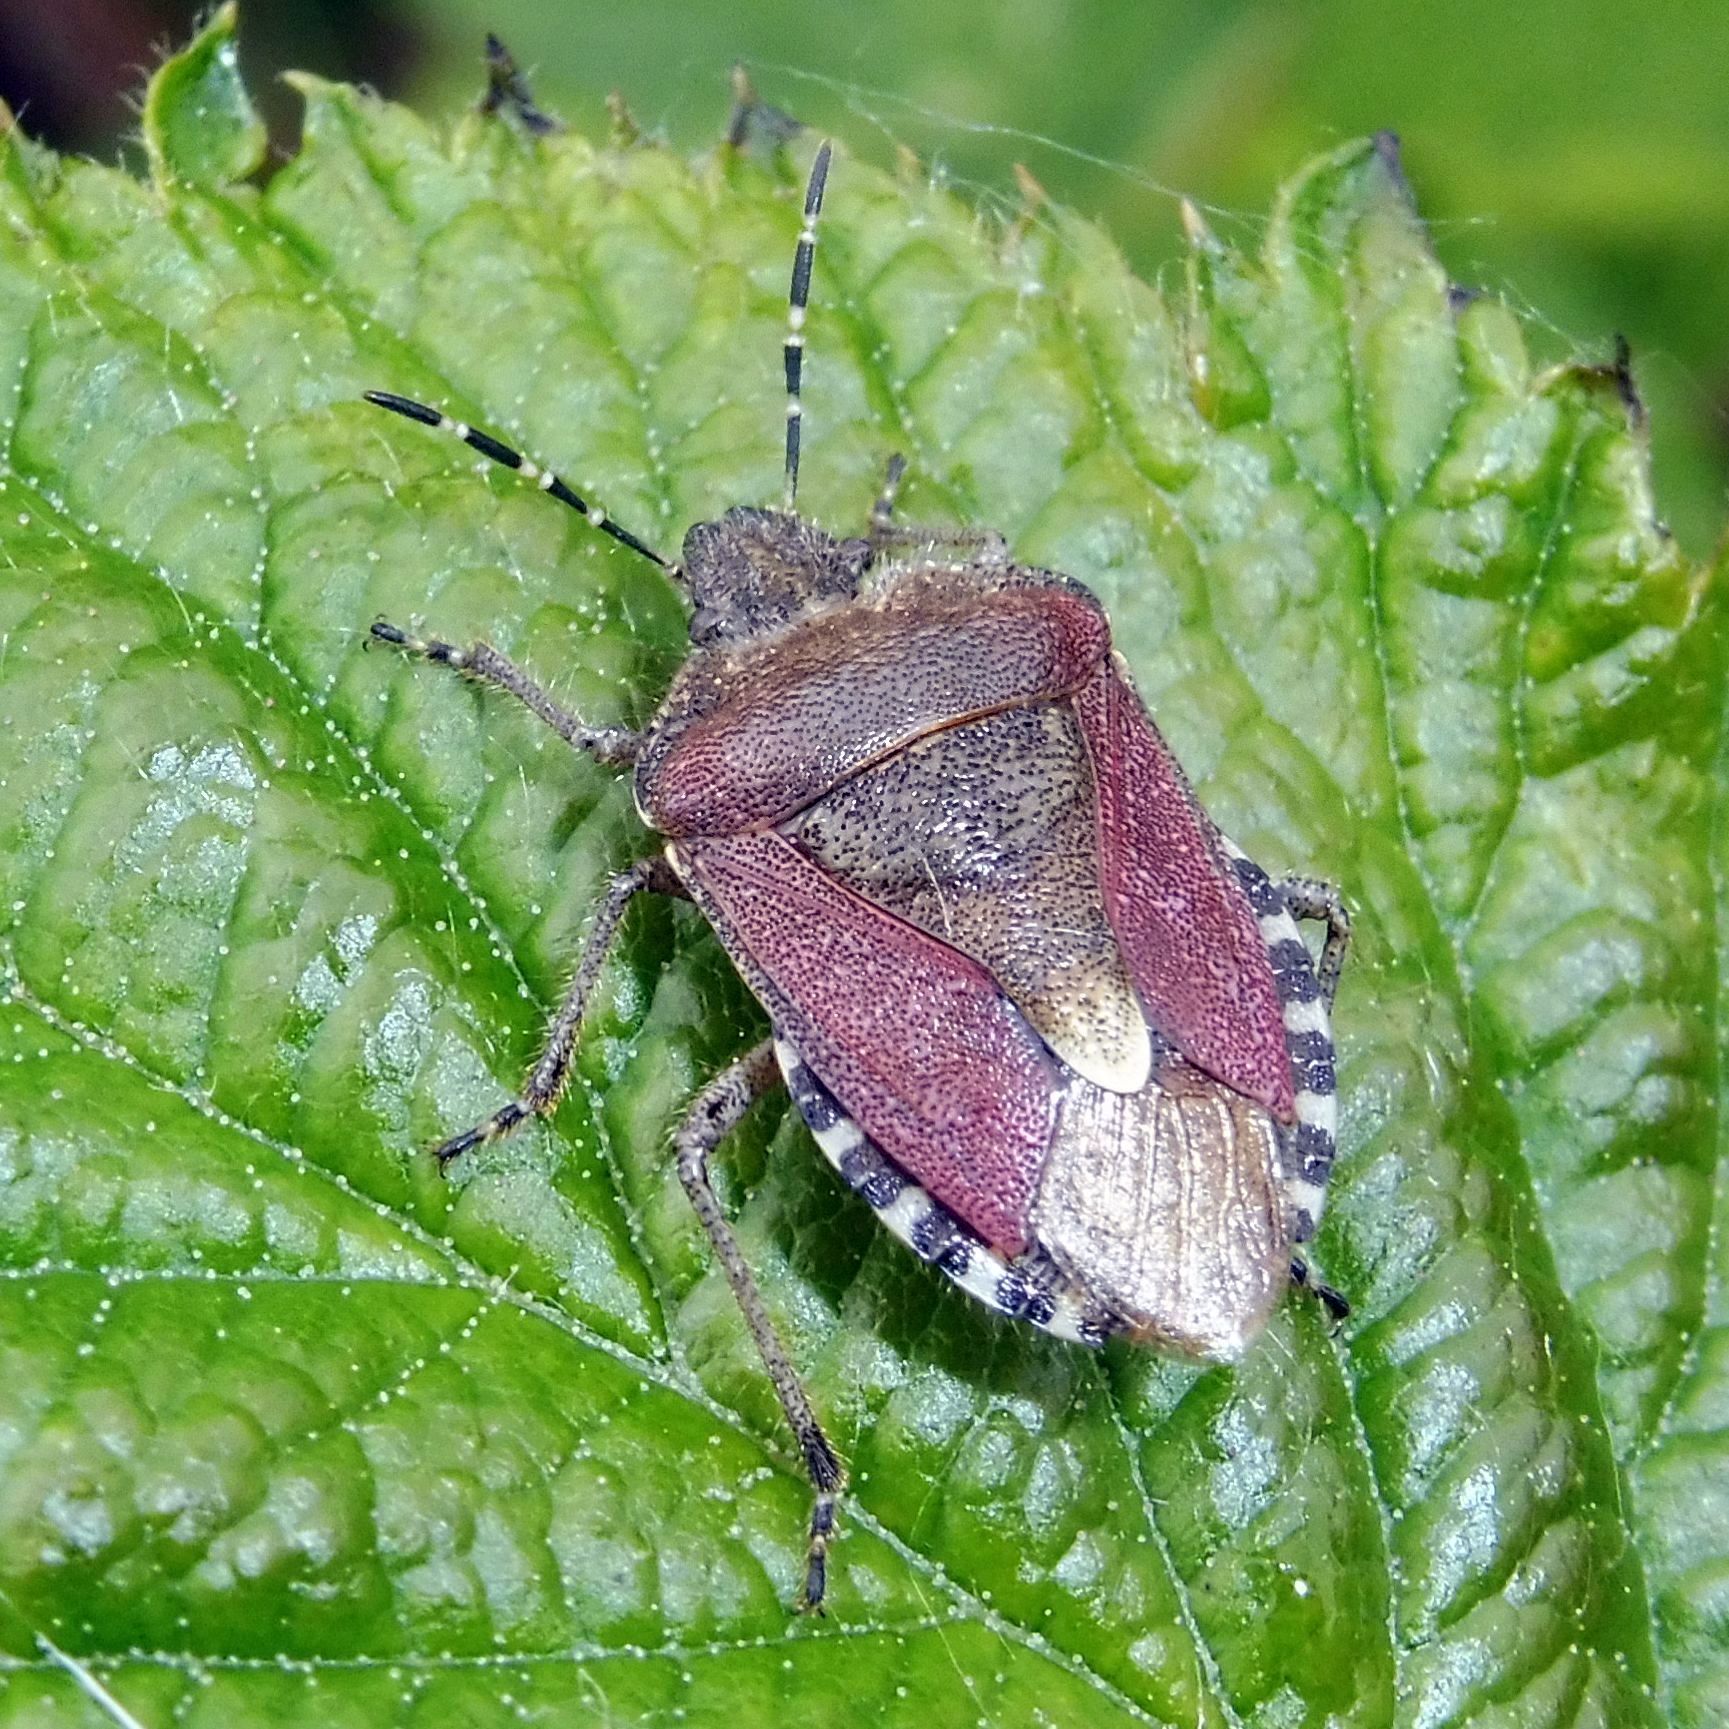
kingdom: Animalia
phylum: Arthropoda
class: Insecta
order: Hemiptera
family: Pentatomidae
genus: Dolycoris
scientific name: Dolycoris baccarum
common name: Sloe bug
